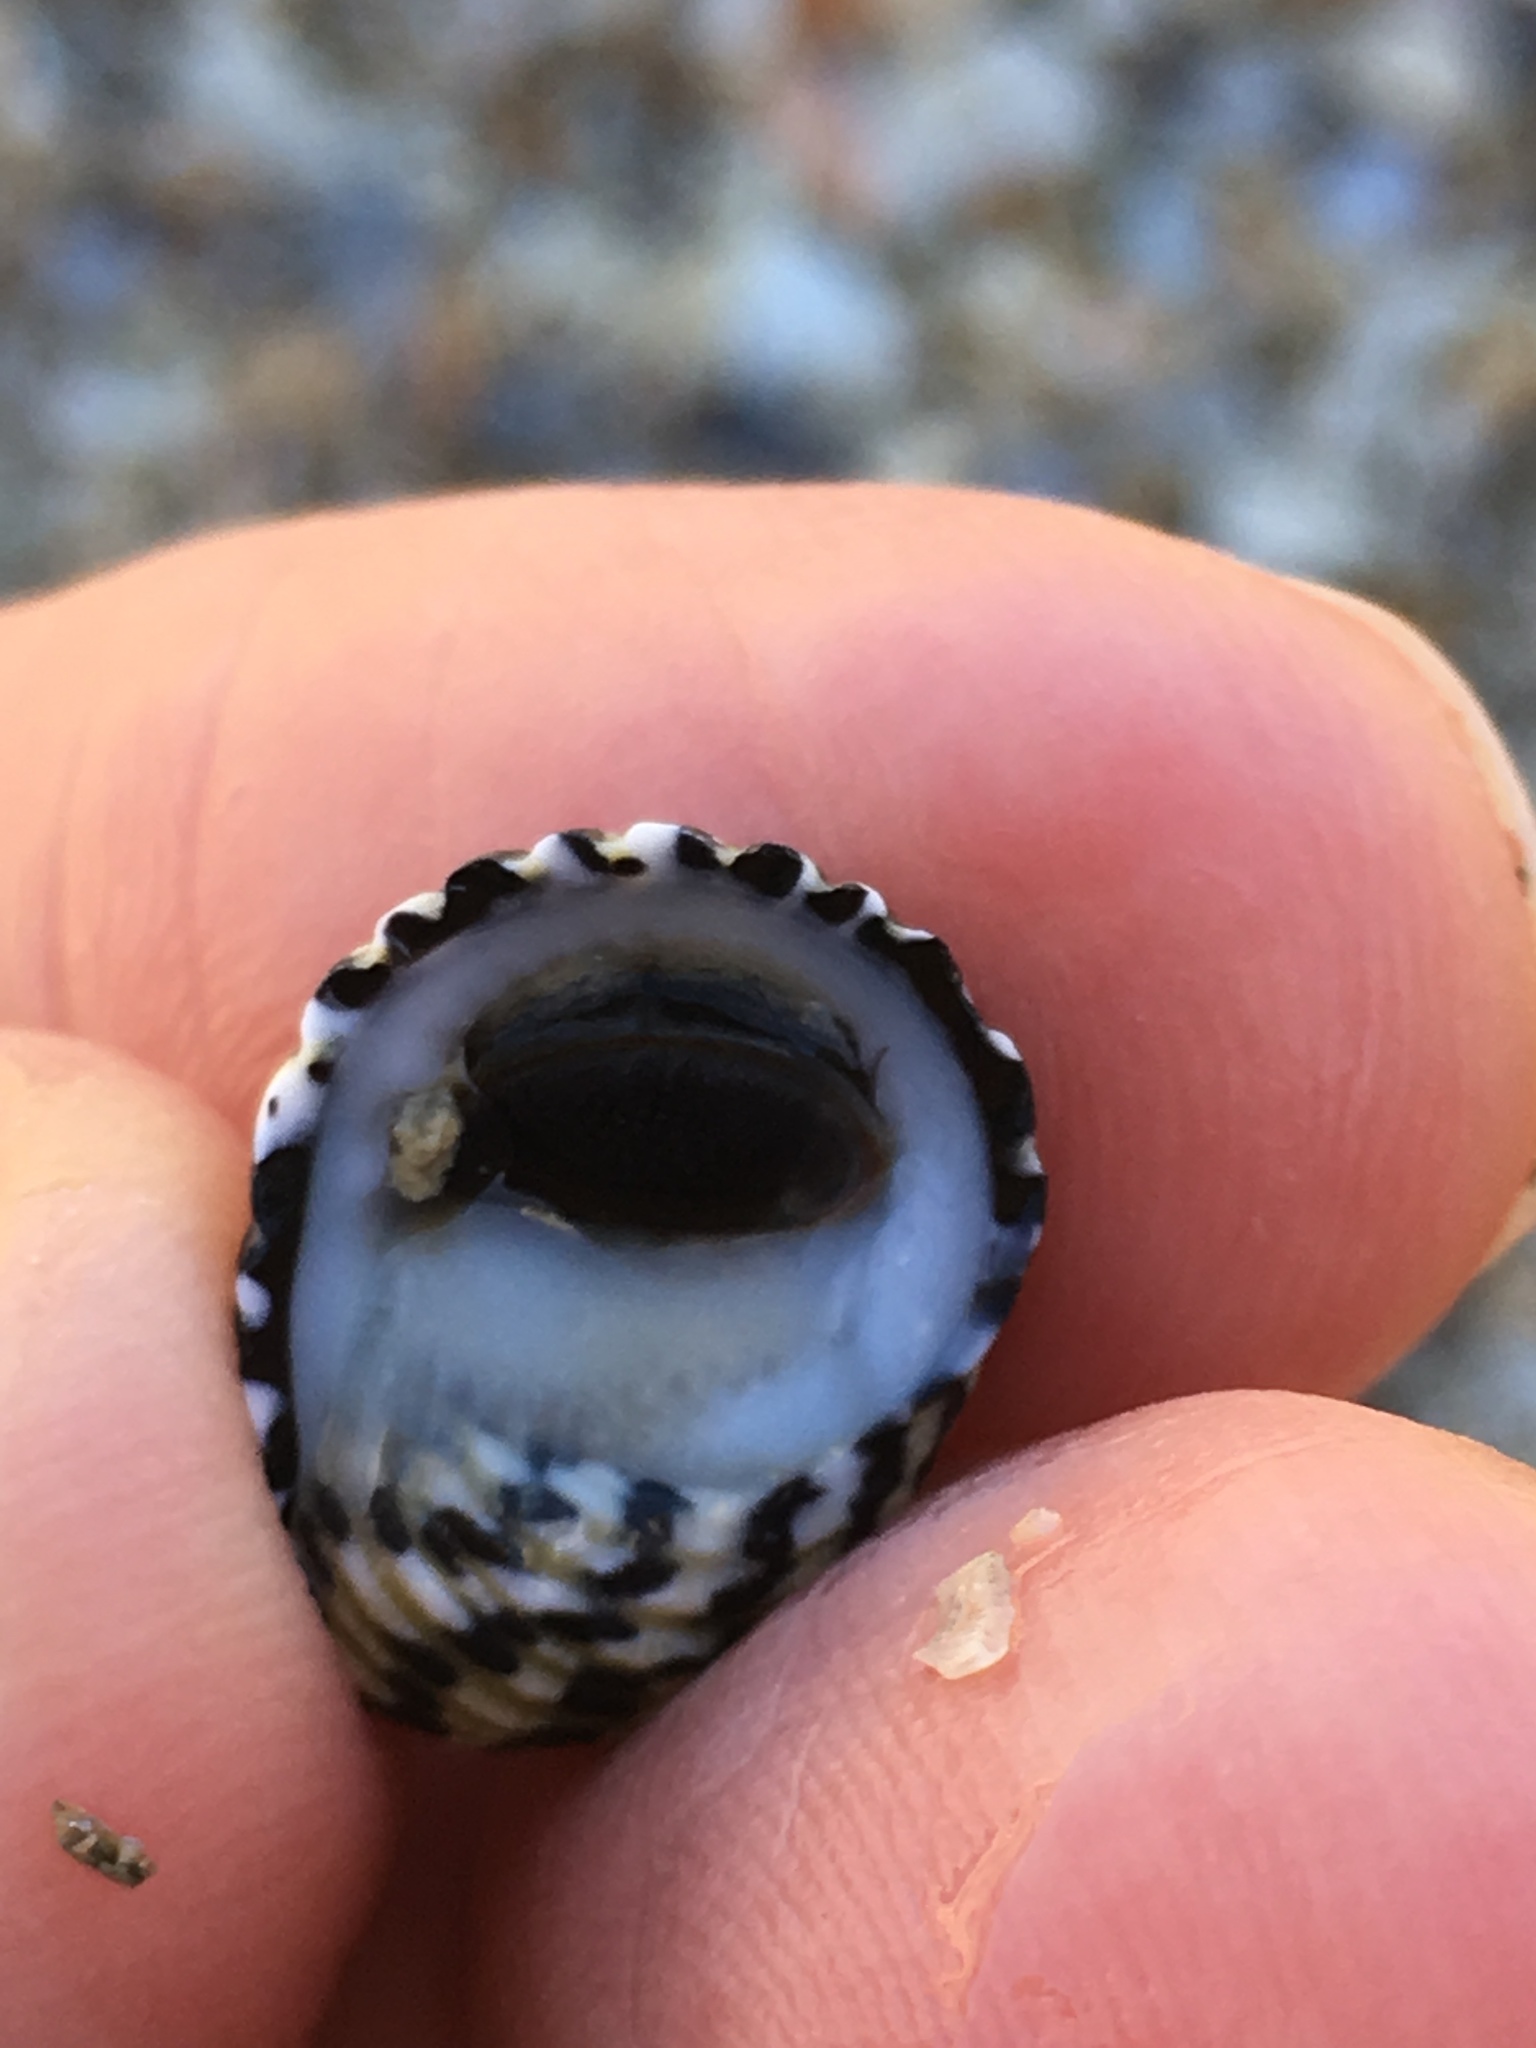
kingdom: Animalia
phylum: Mollusca
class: Gastropoda
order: Cycloneritida
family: Neritidae
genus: Nerita
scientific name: Nerita tessellata
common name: Checkered nerite
